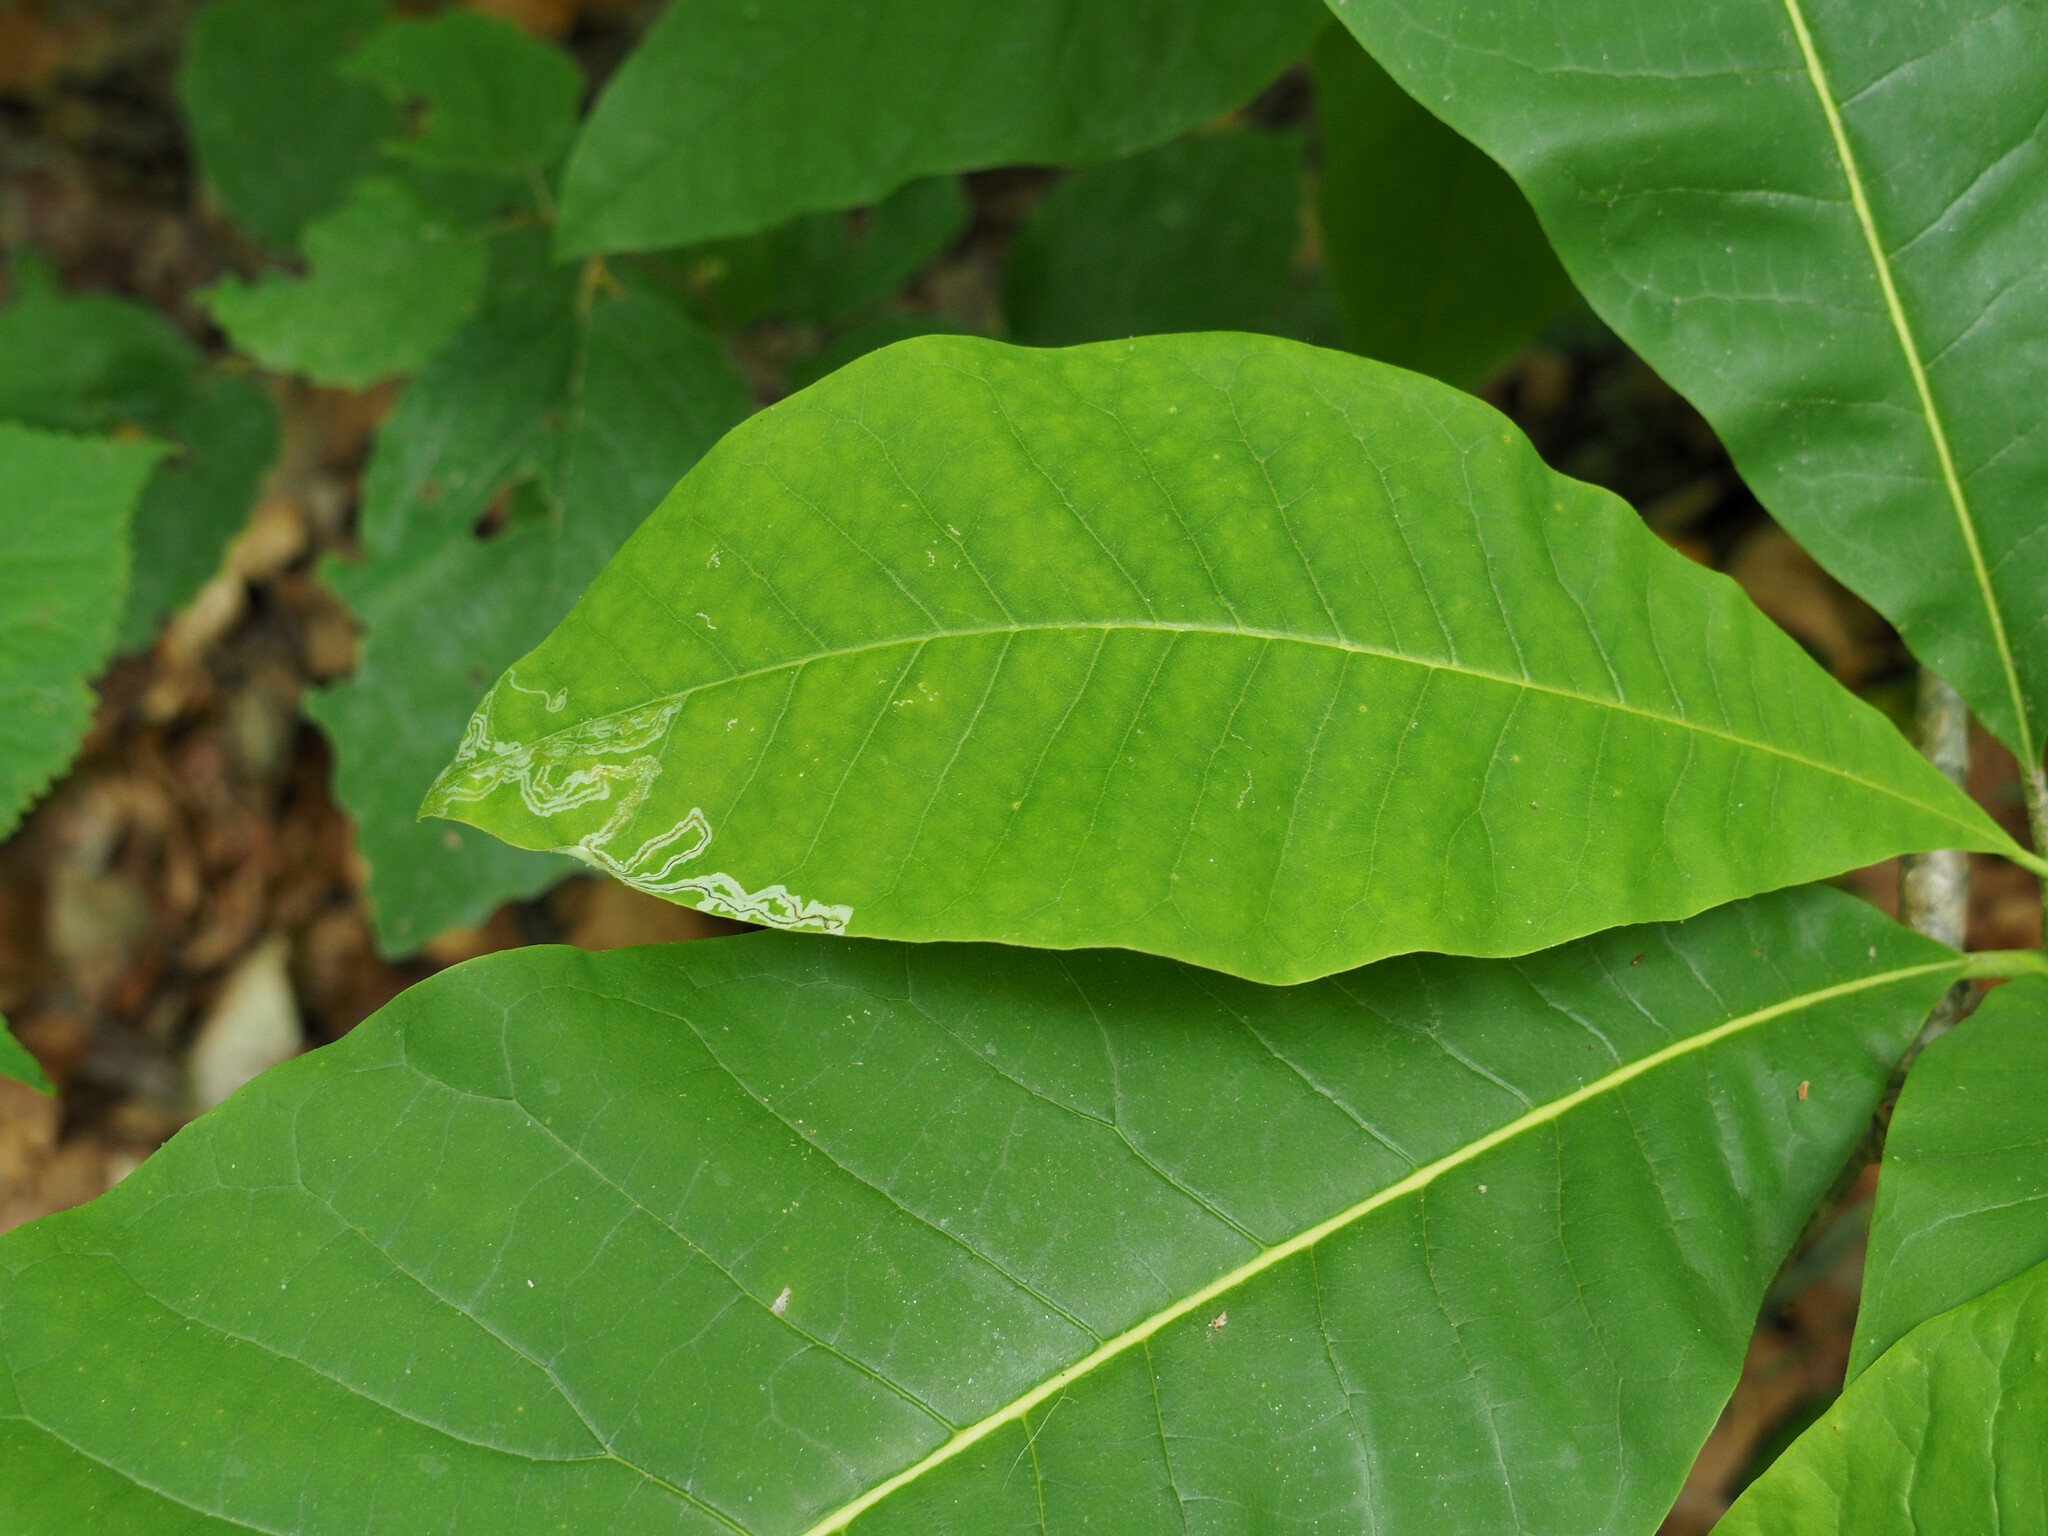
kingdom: Animalia
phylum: Arthropoda
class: Insecta
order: Lepidoptera
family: Gracillariidae
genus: Phyllocnistis
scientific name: Phyllocnistis liriodendronella
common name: Tulip tree leaf miner
